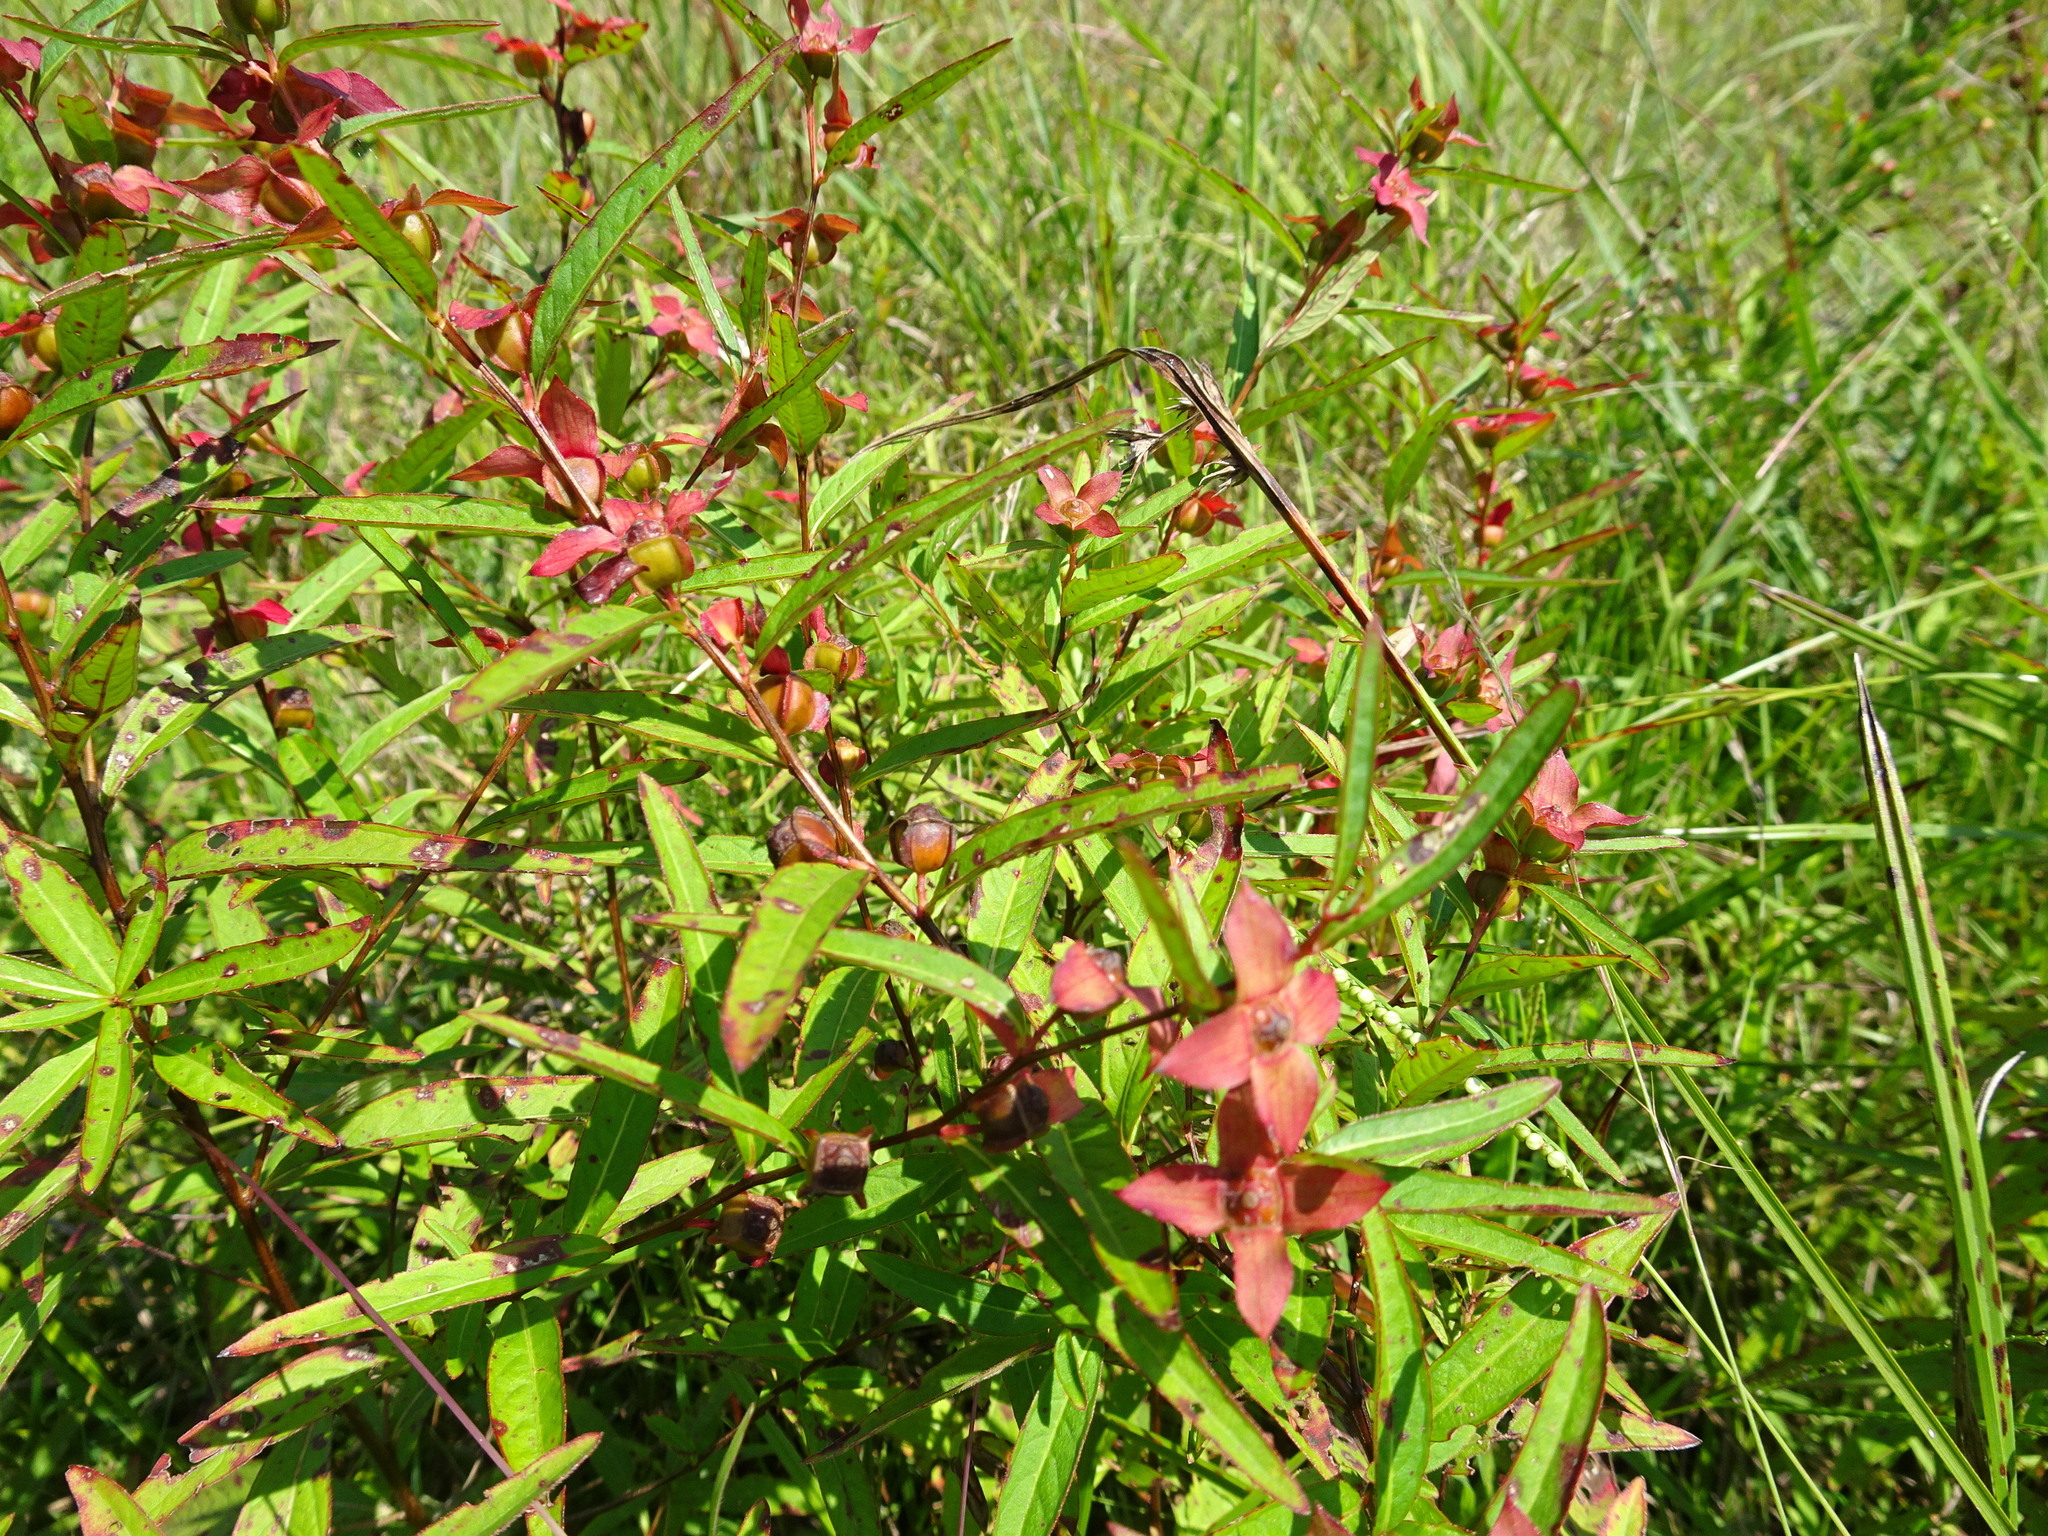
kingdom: Plantae
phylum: Tracheophyta
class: Magnoliopsida
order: Myrtales
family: Onagraceae
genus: Ludwigia
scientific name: Ludwigia alternifolia
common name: Rattlebox
